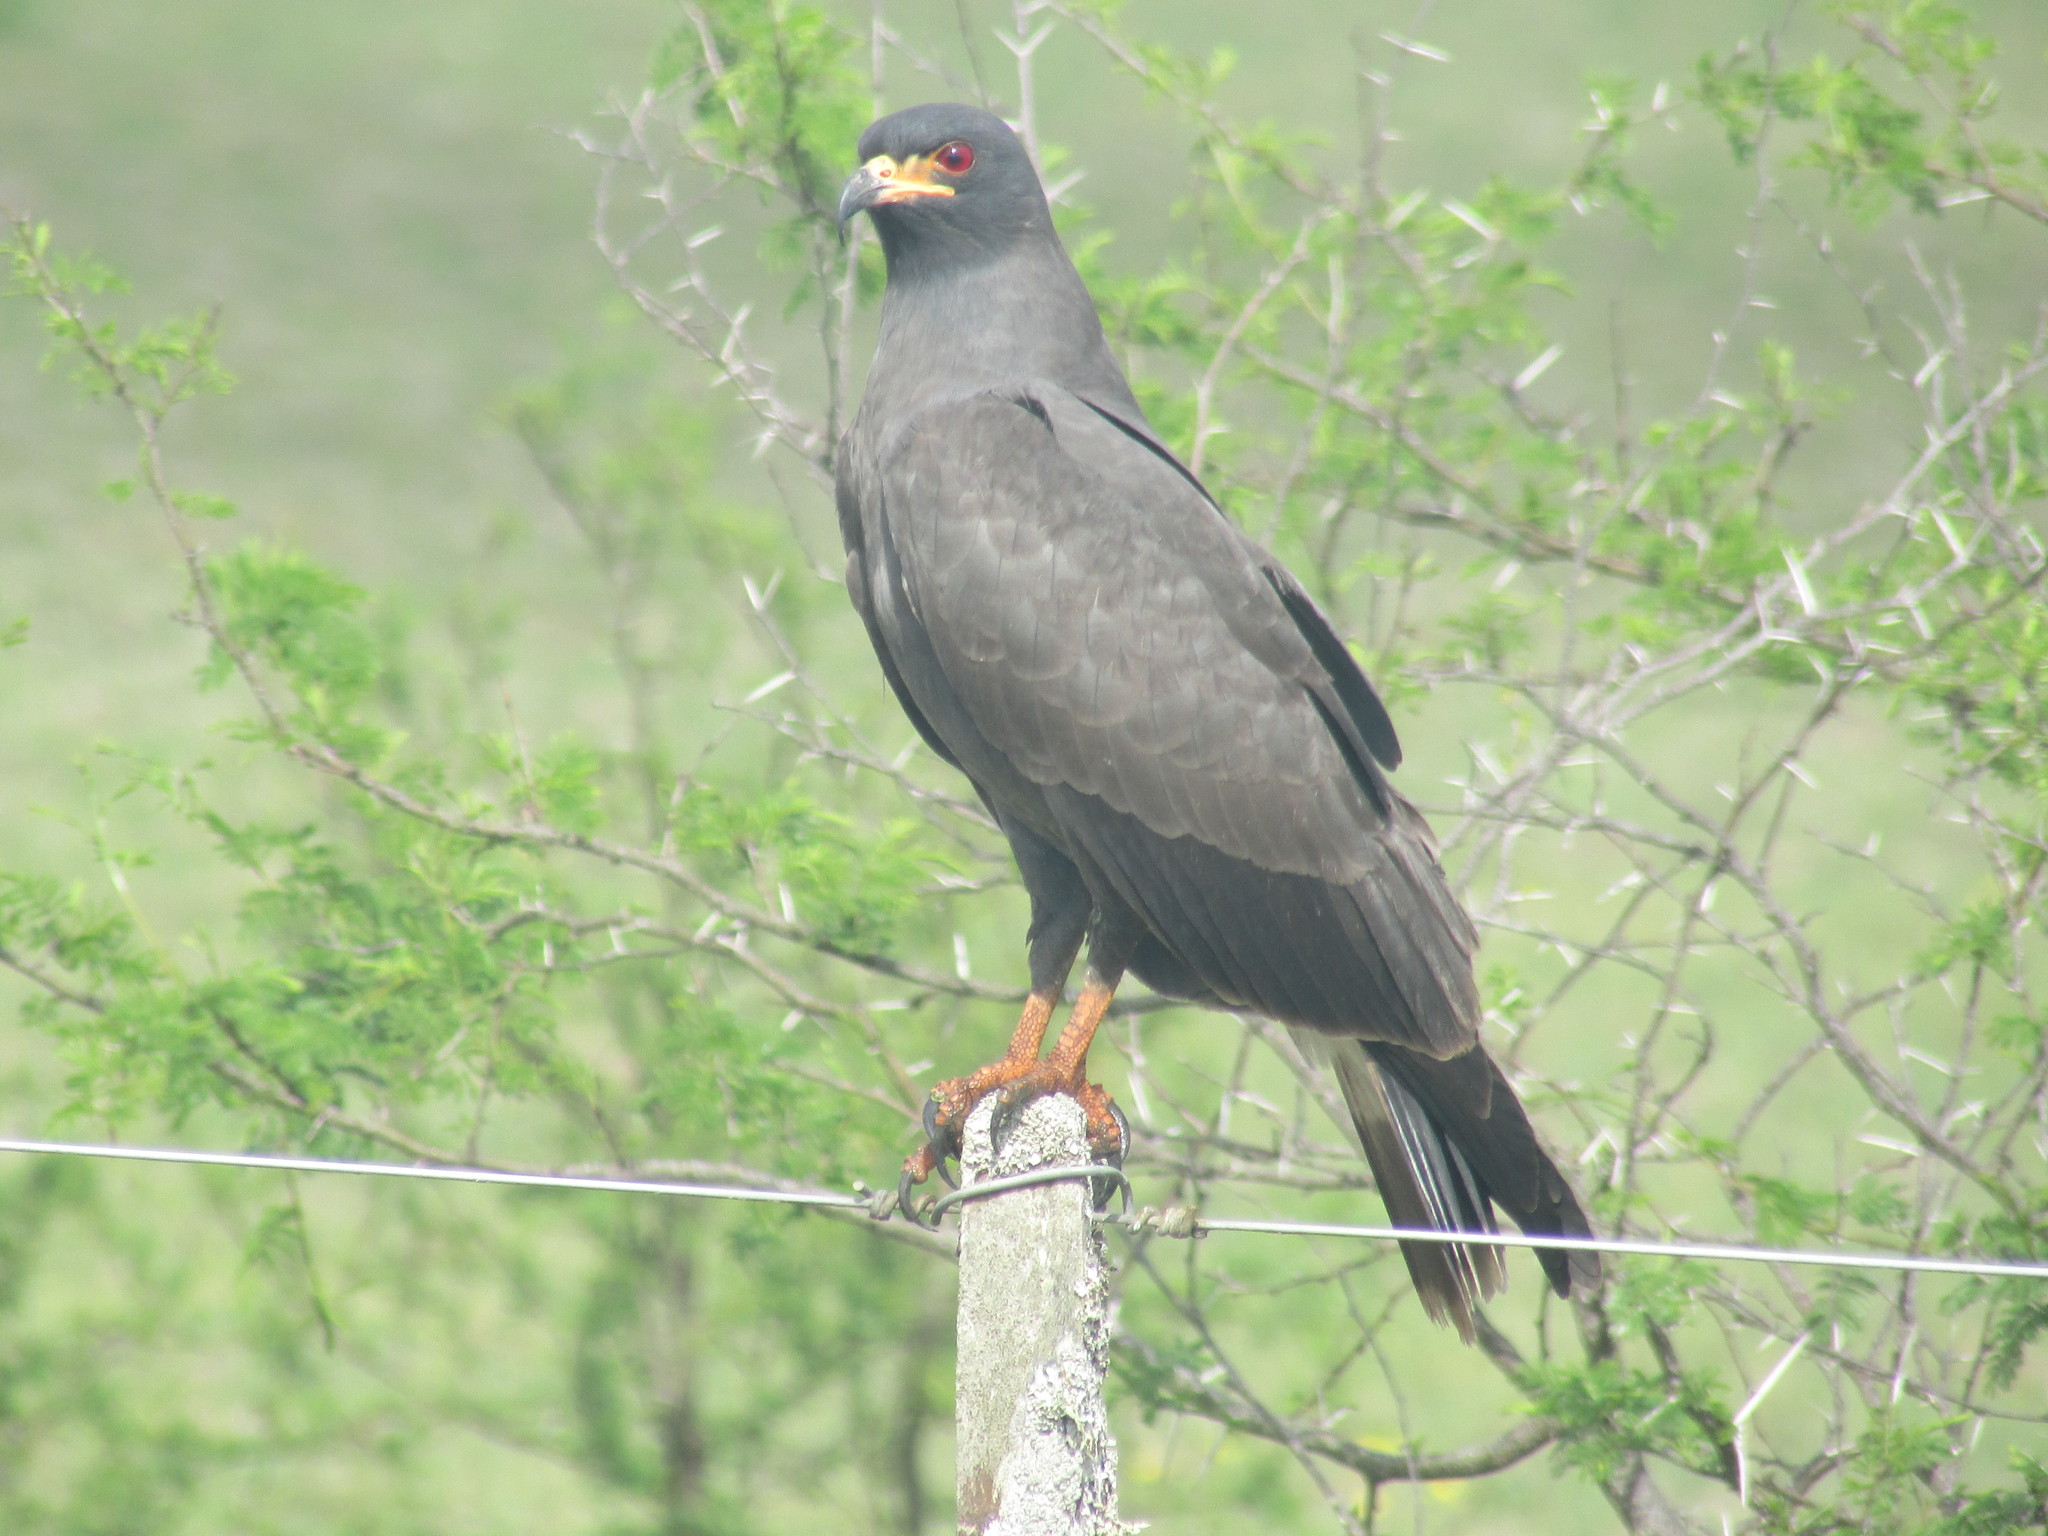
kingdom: Animalia
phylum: Chordata
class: Aves
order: Accipitriformes
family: Accipitridae
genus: Rostrhamus
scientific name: Rostrhamus sociabilis
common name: Snail kite
